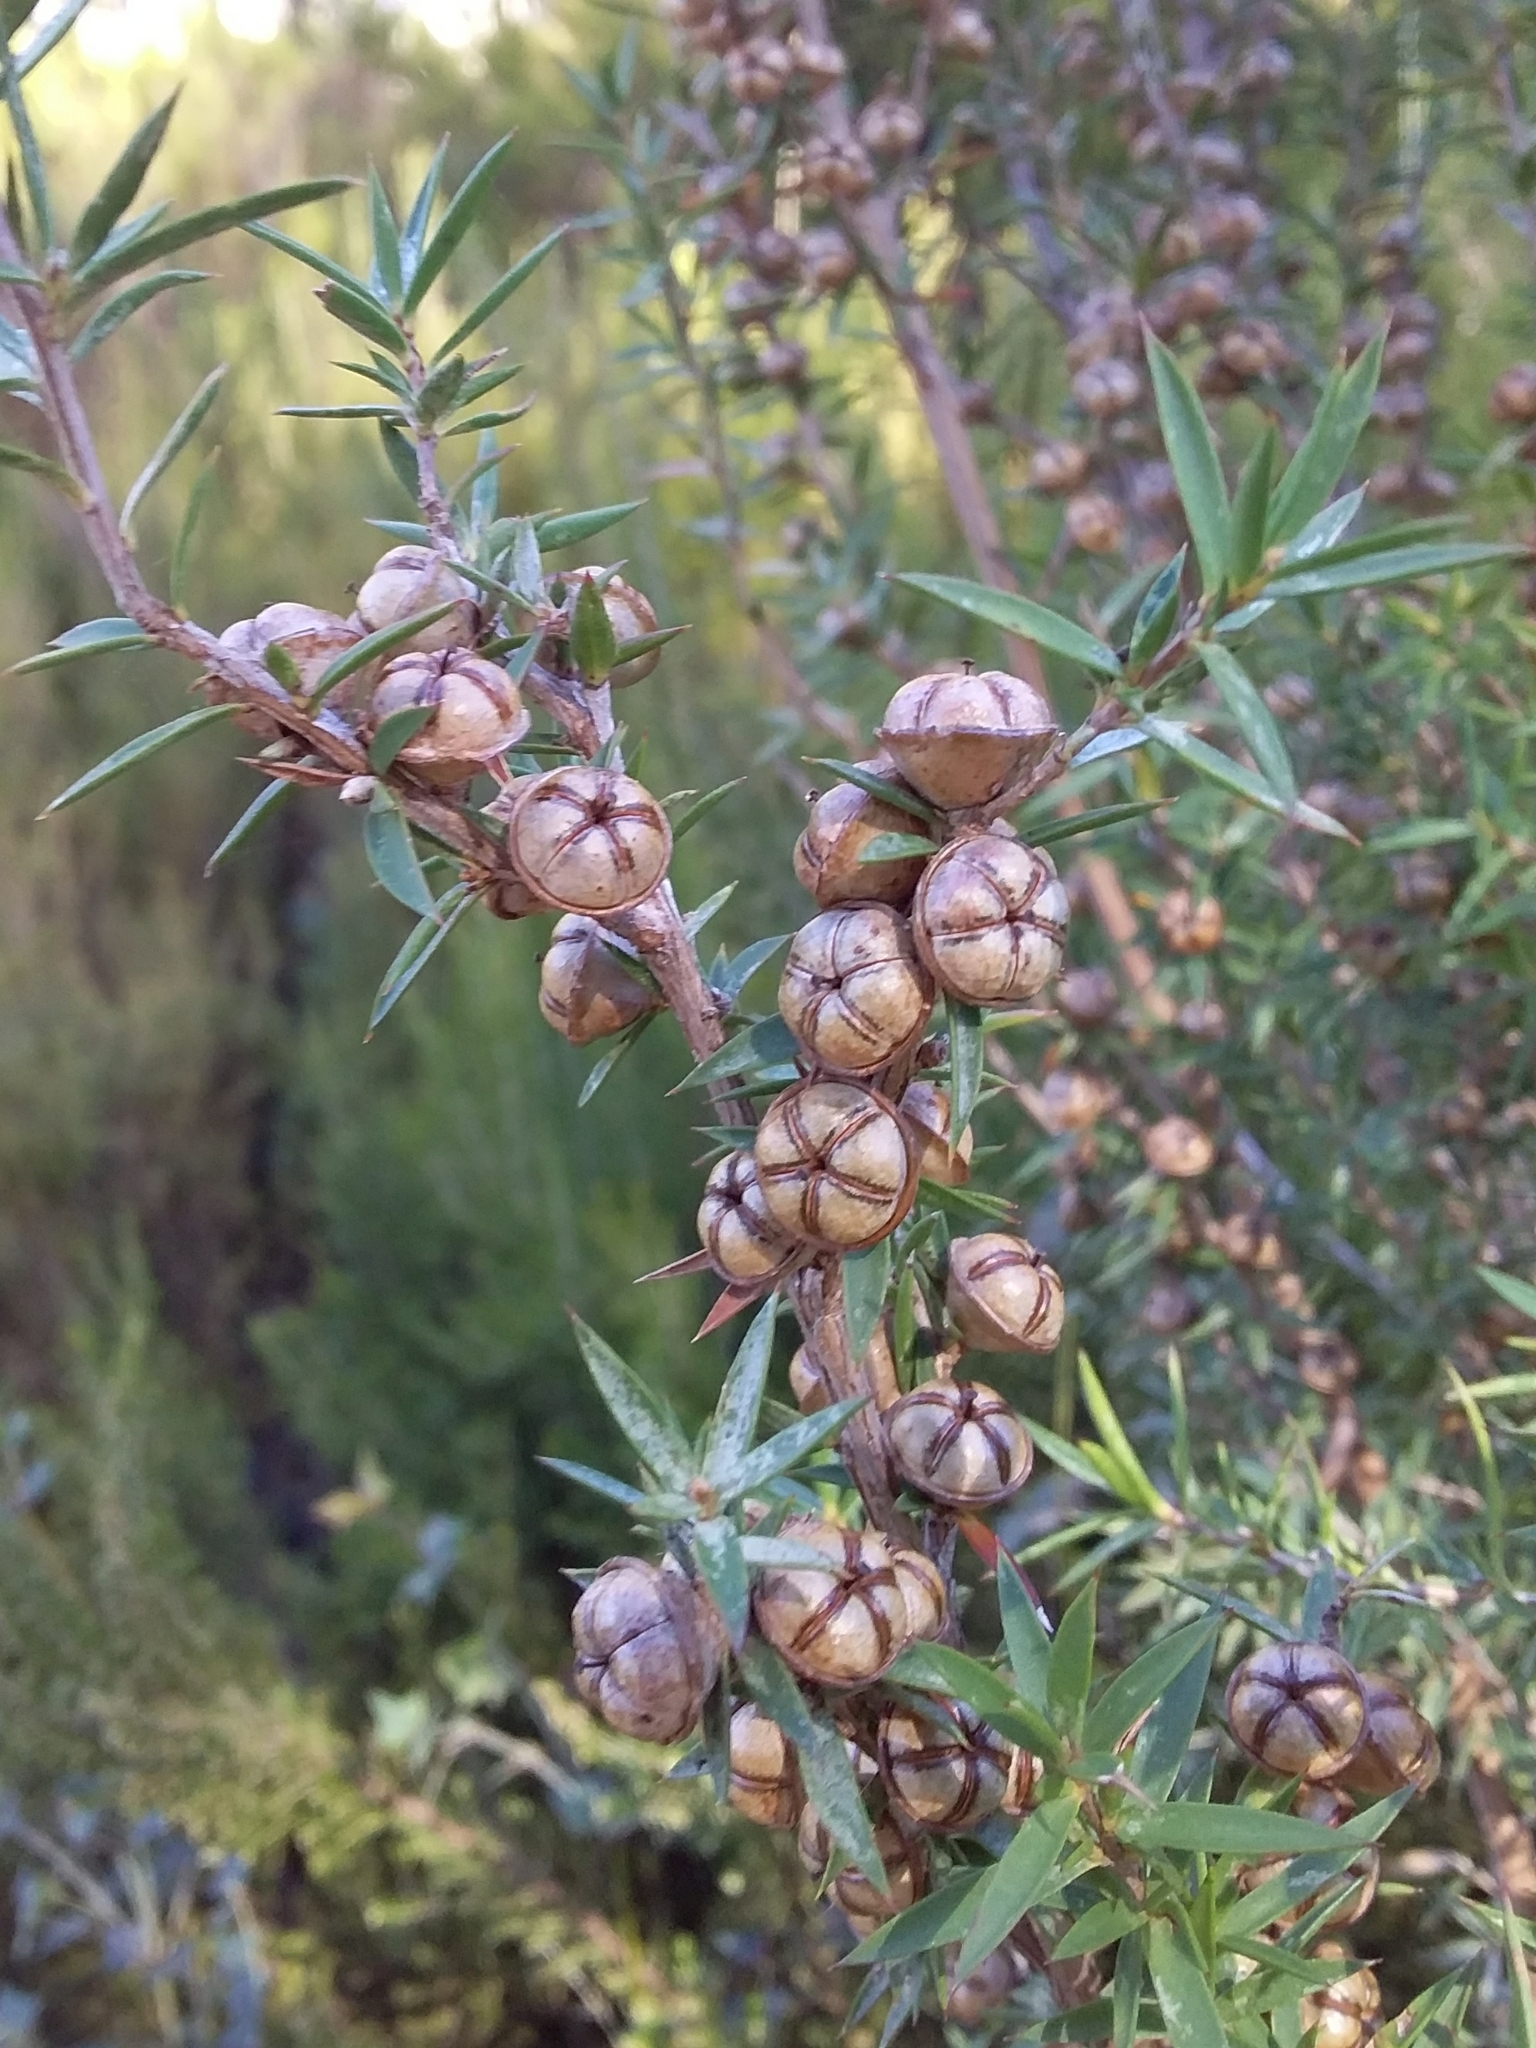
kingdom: Plantae
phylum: Tracheophyta
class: Magnoliopsida
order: Myrtales
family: Myrtaceae
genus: Leptospermum
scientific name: Leptospermum continentale
